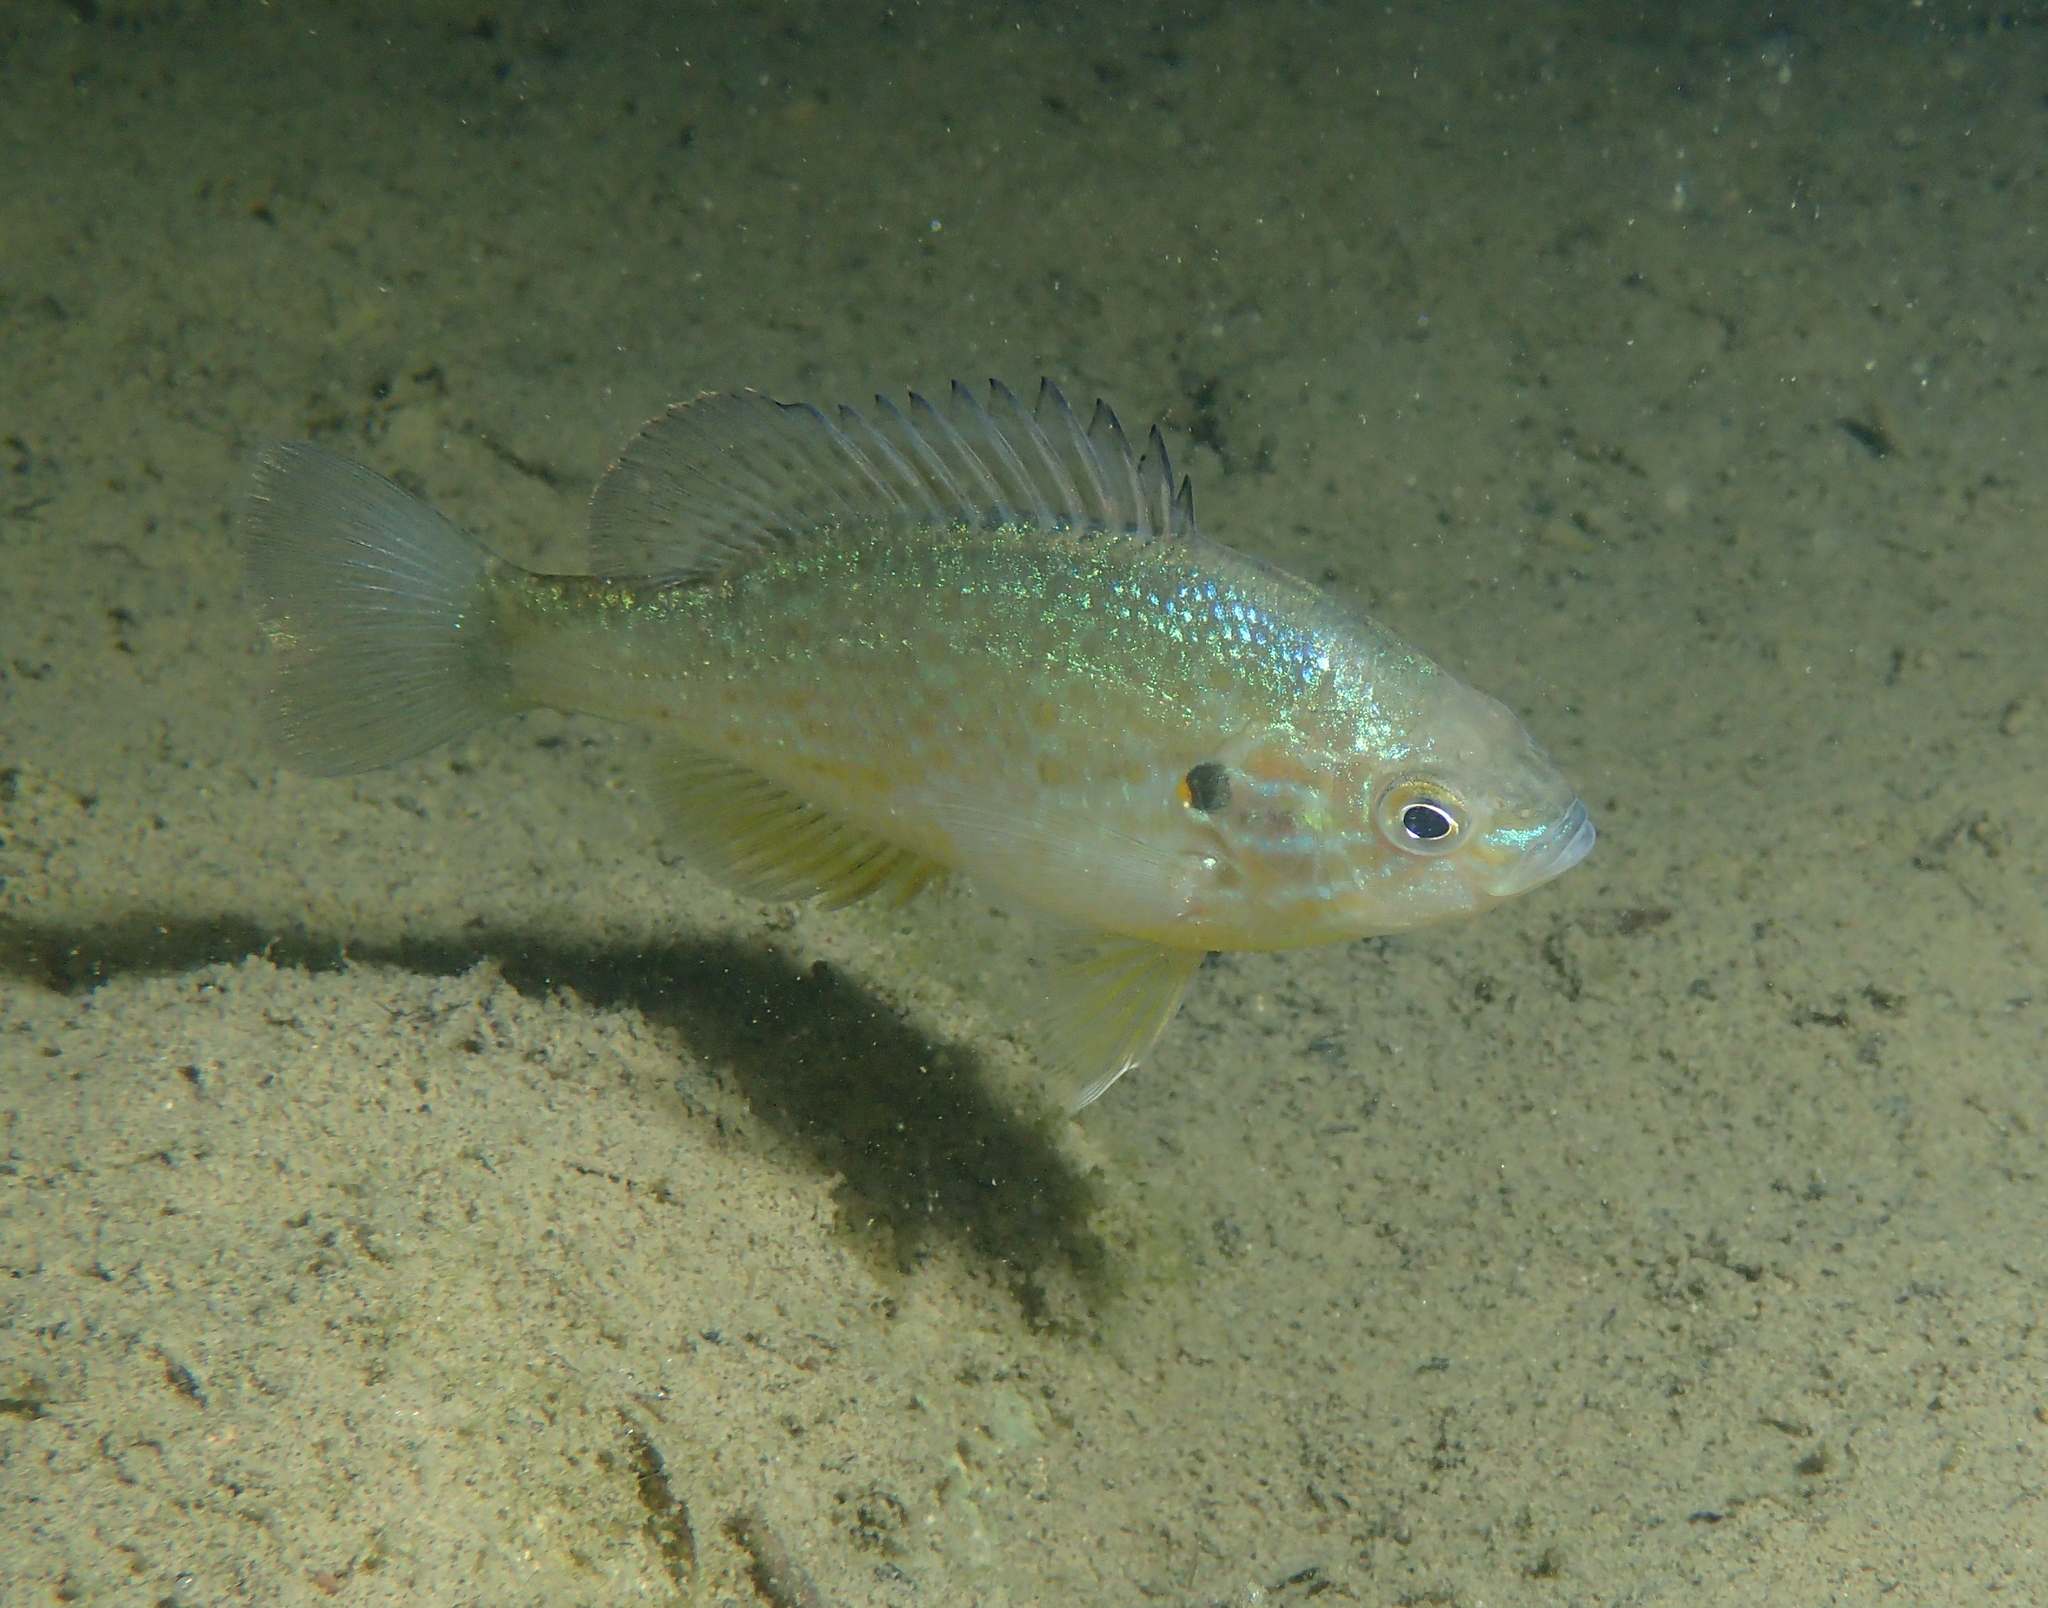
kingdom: Animalia
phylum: Chordata
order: Perciformes
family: Centrarchidae
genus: Lepomis
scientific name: Lepomis gibbosus
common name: Pumpkinseed
